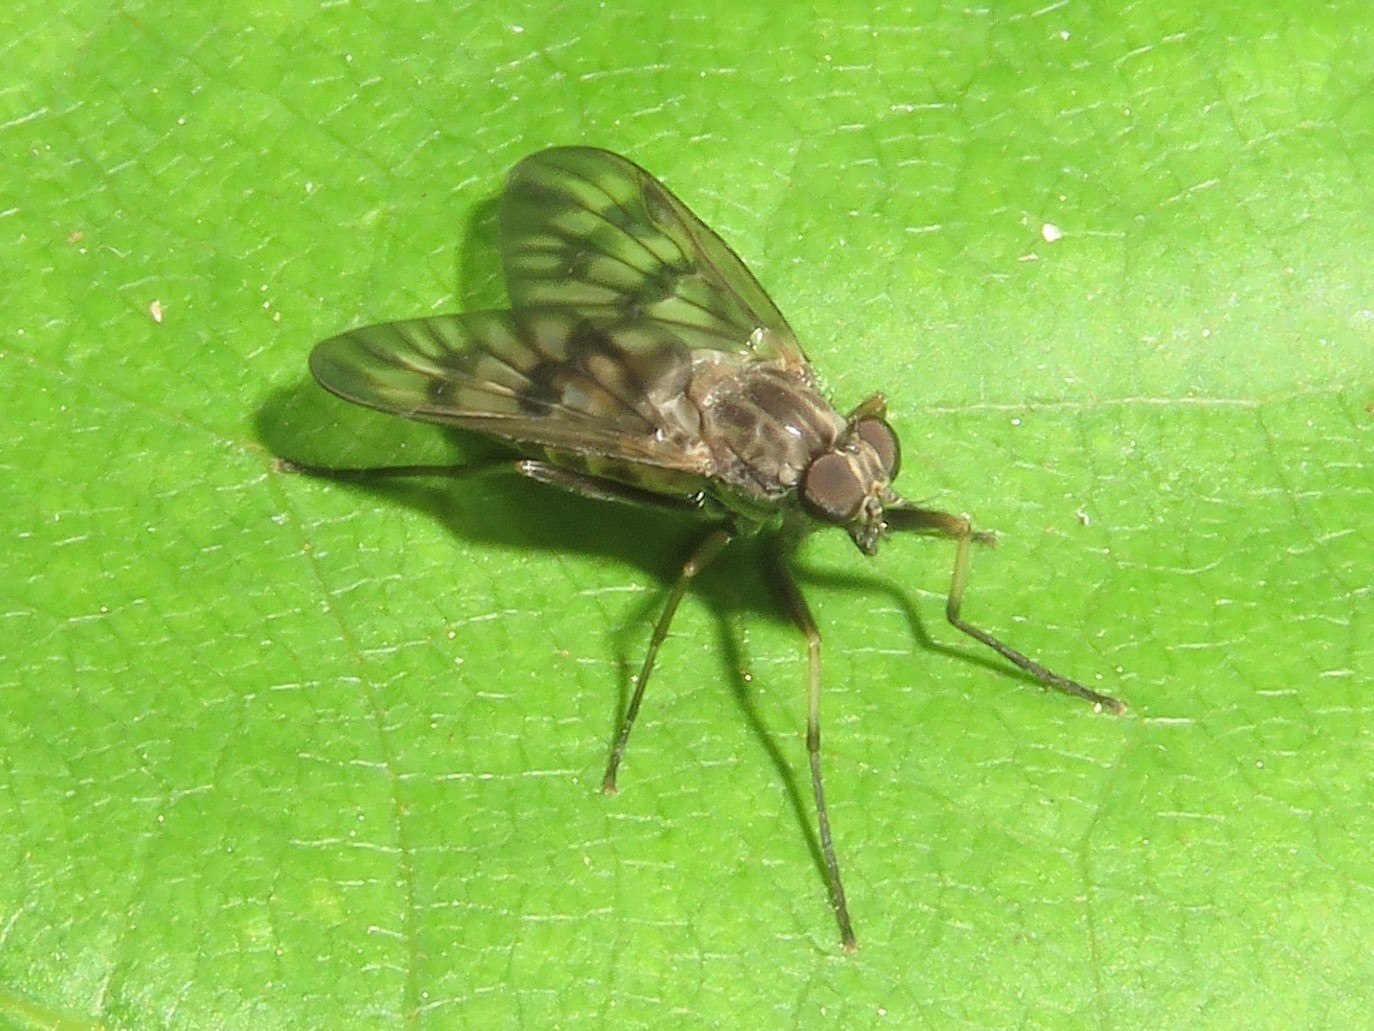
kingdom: Animalia
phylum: Arthropoda
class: Insecta
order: Diptera
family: Rhagionidae
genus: Rhagio
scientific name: Rhagio mystaceus
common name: Common snipe fly
